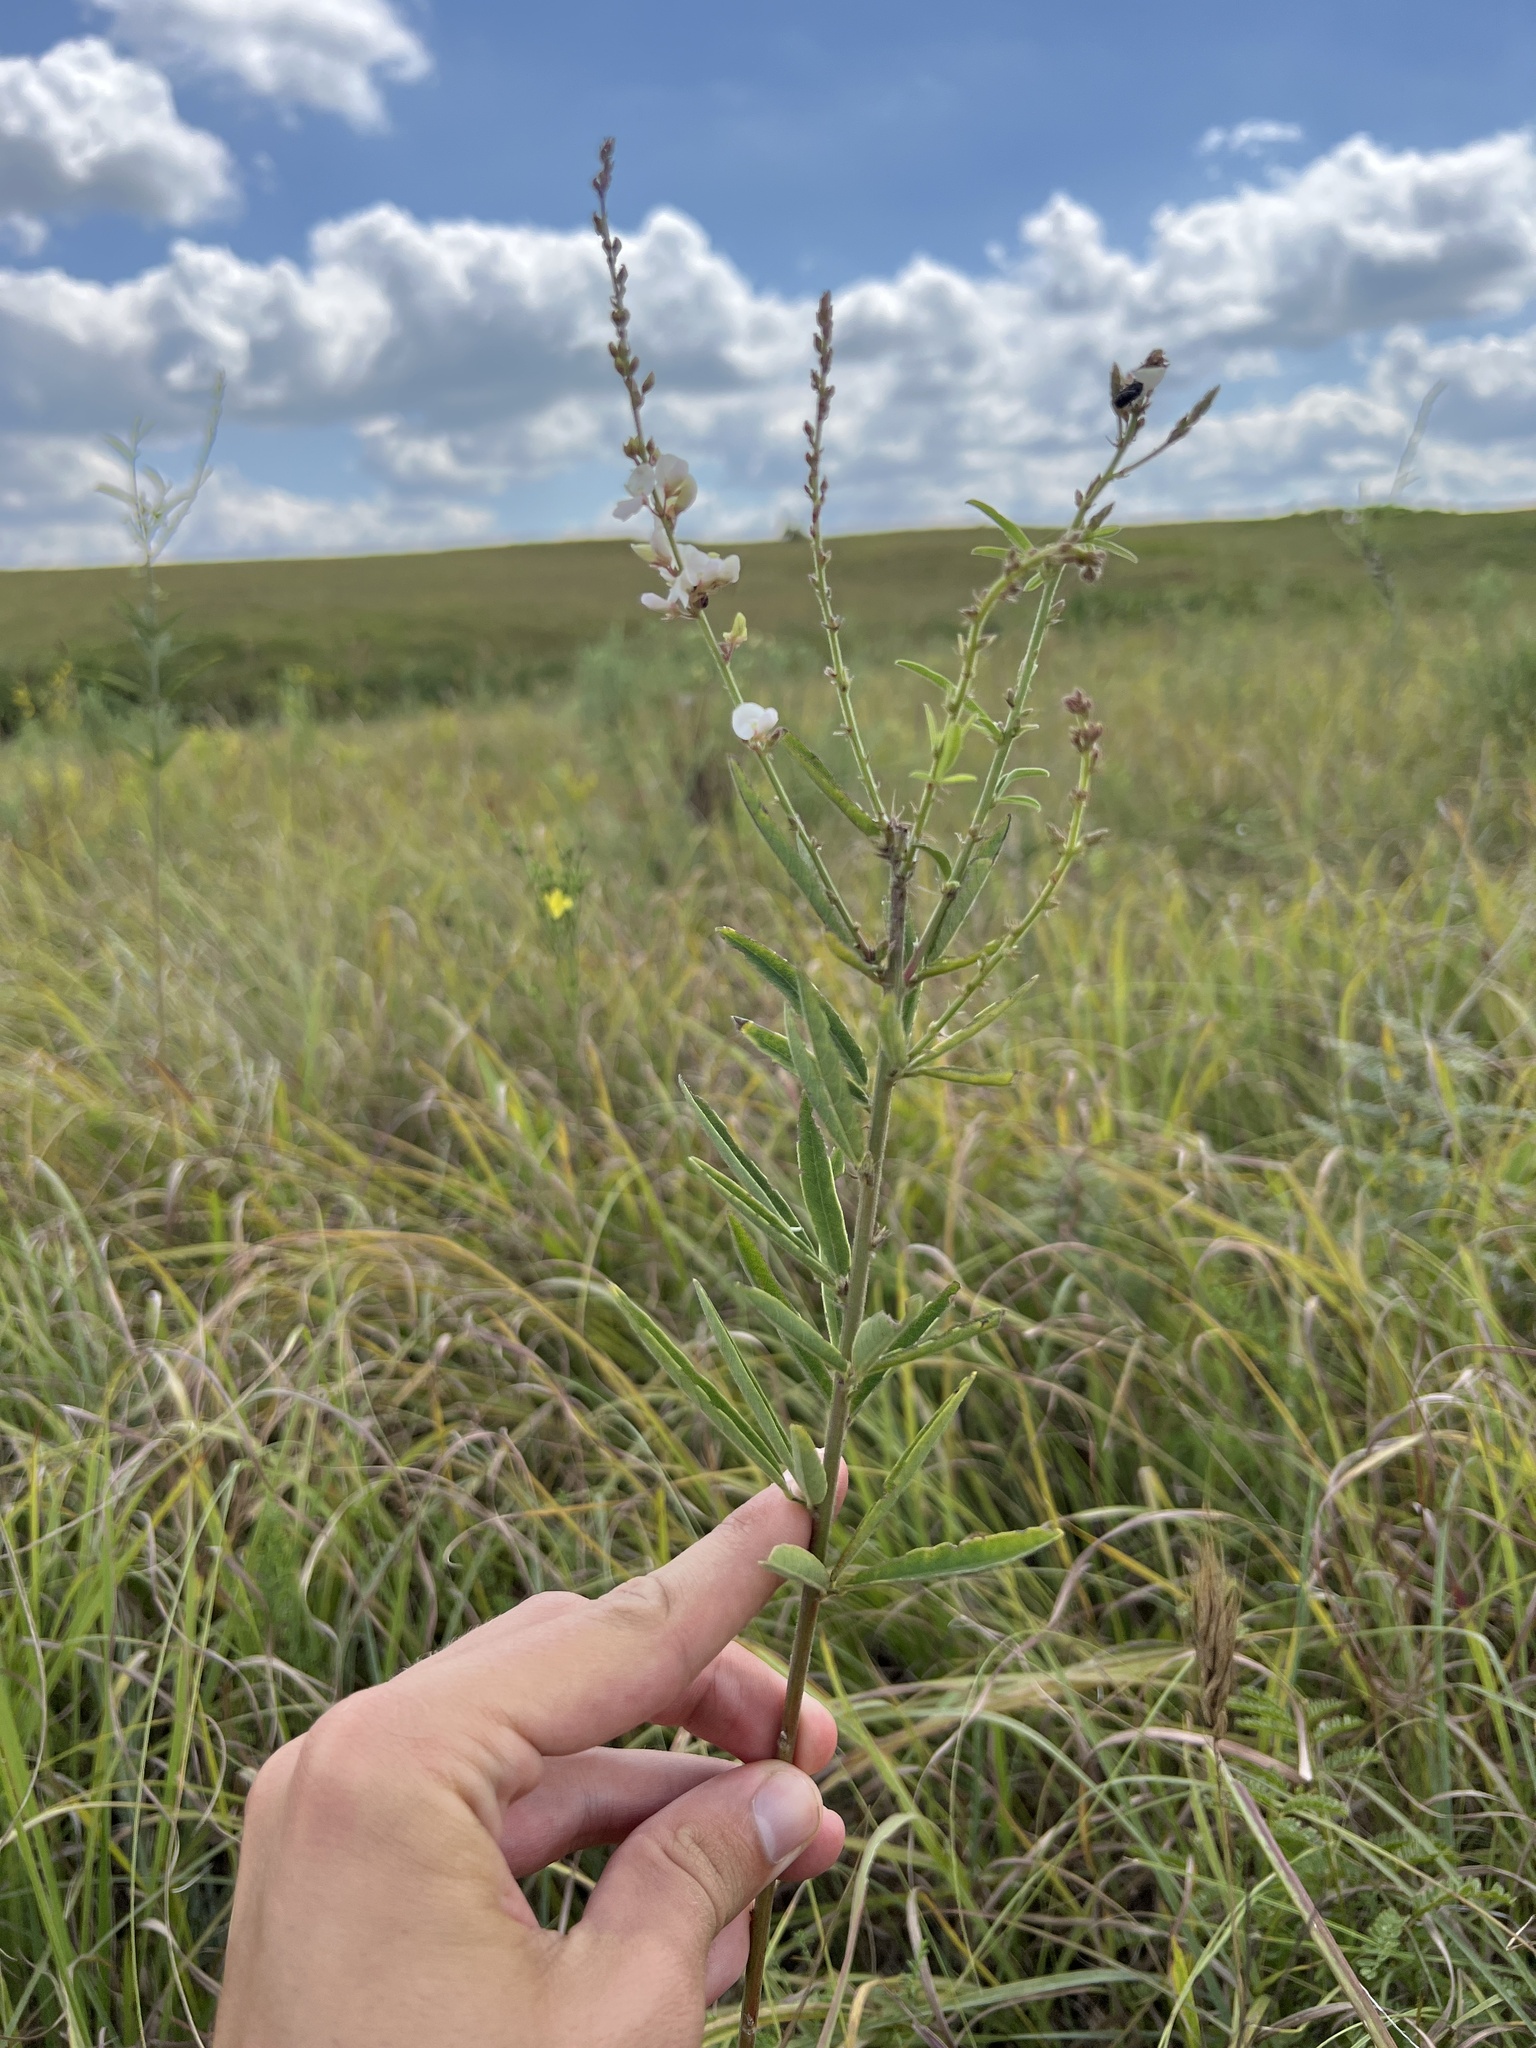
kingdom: Plantae
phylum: Tracheophyta
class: Magnoliopsida
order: Fabales
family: Fabaceae
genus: Desmodium
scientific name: Desmodium sessilifolium
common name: Sessile tick-clover
